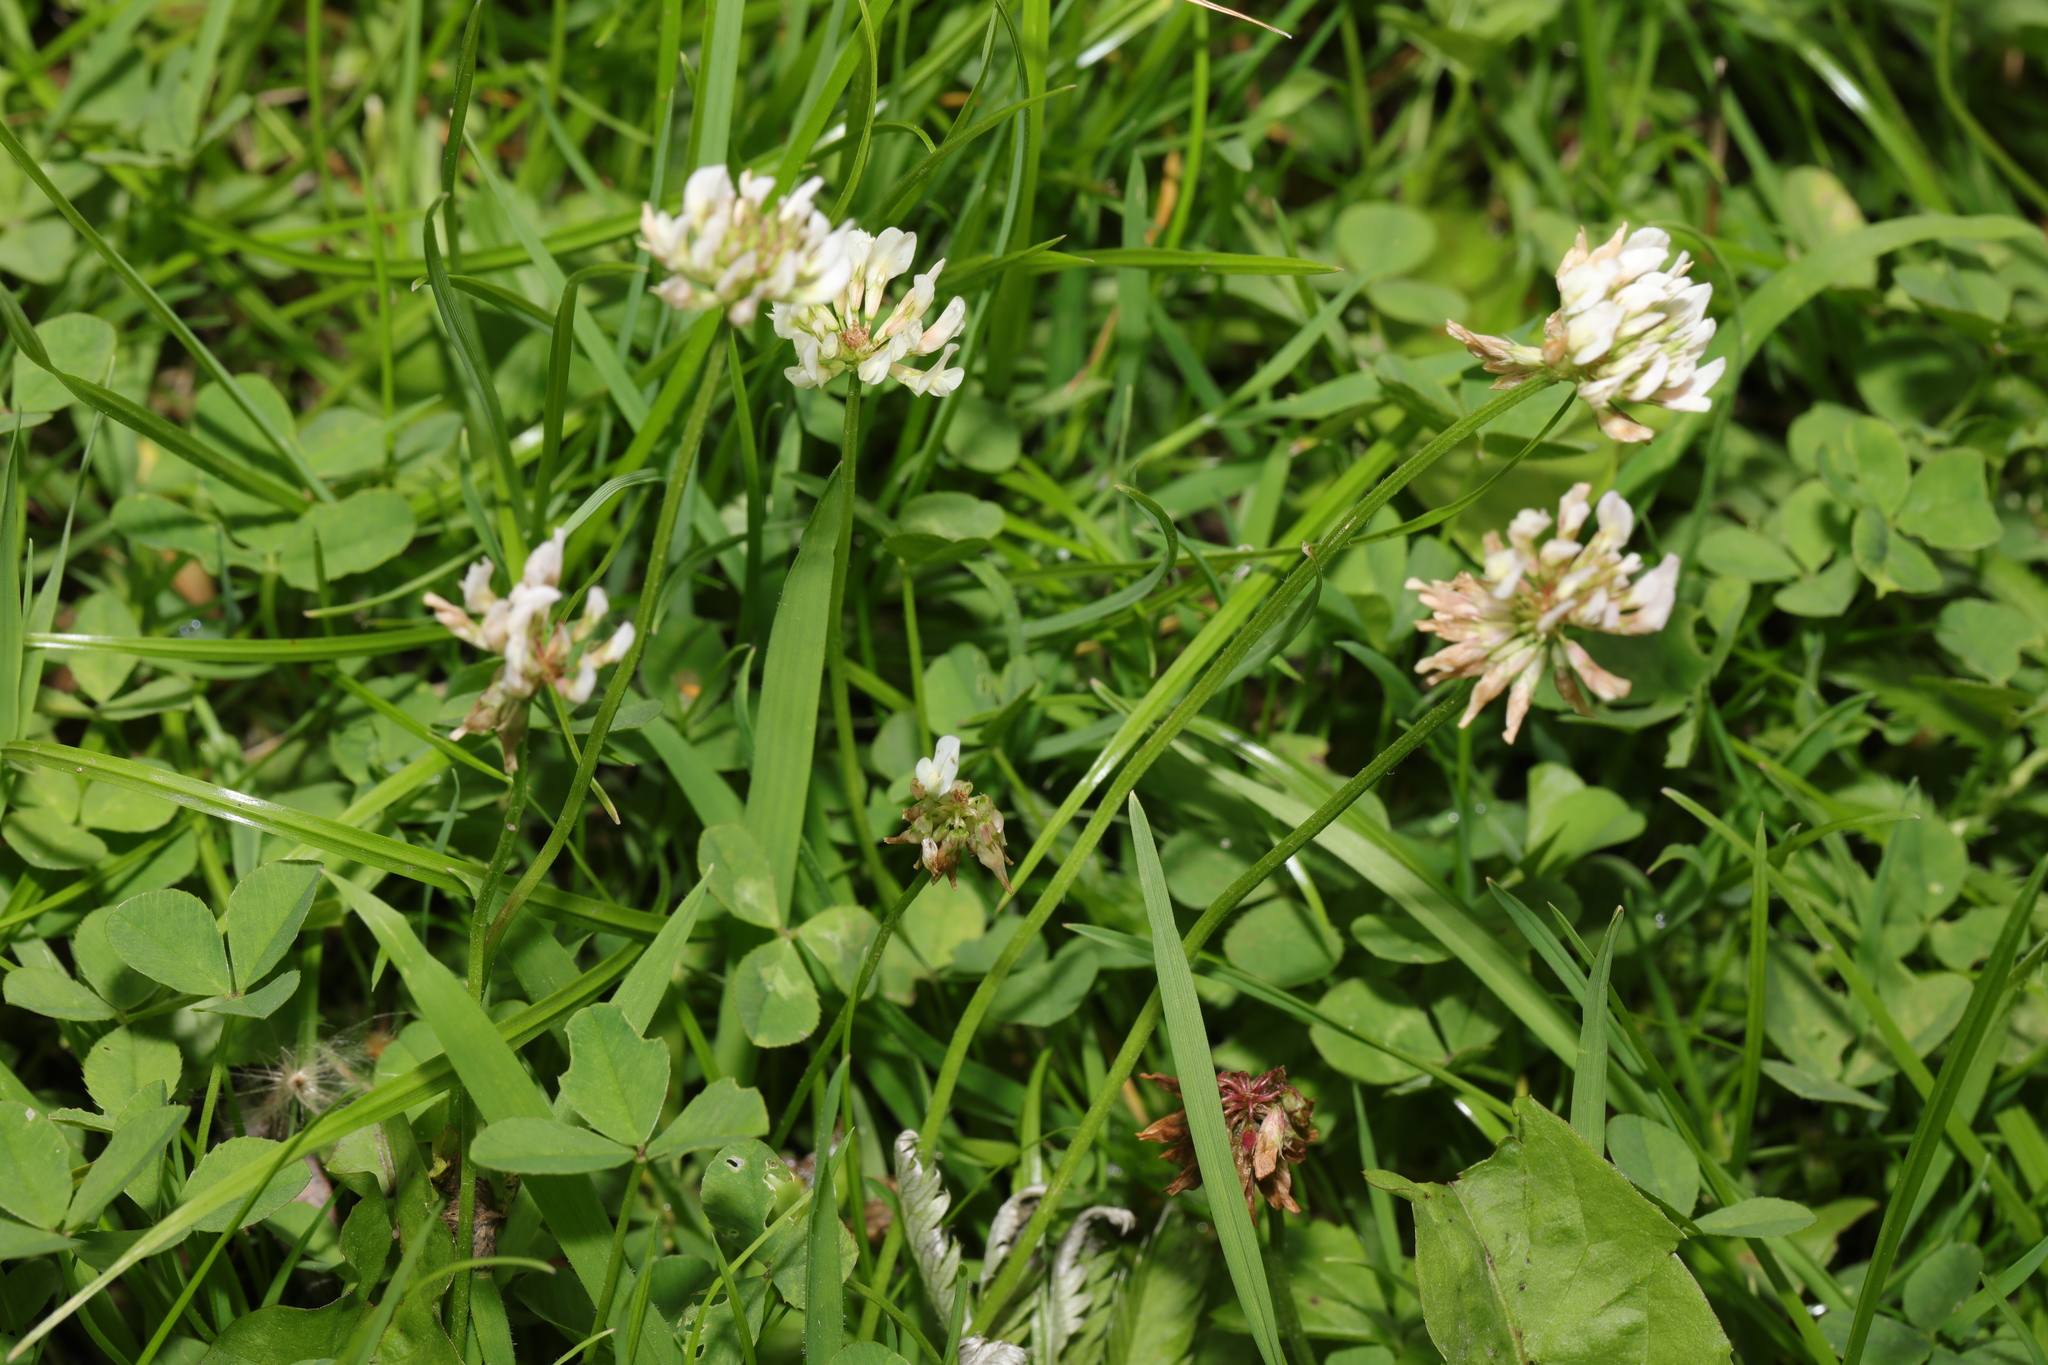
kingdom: Plantae
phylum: Tracheophyta
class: Magnoliopsida
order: Fabales
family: Fabaceae
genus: Trifolium
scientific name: Trifolium repens
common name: White clover
